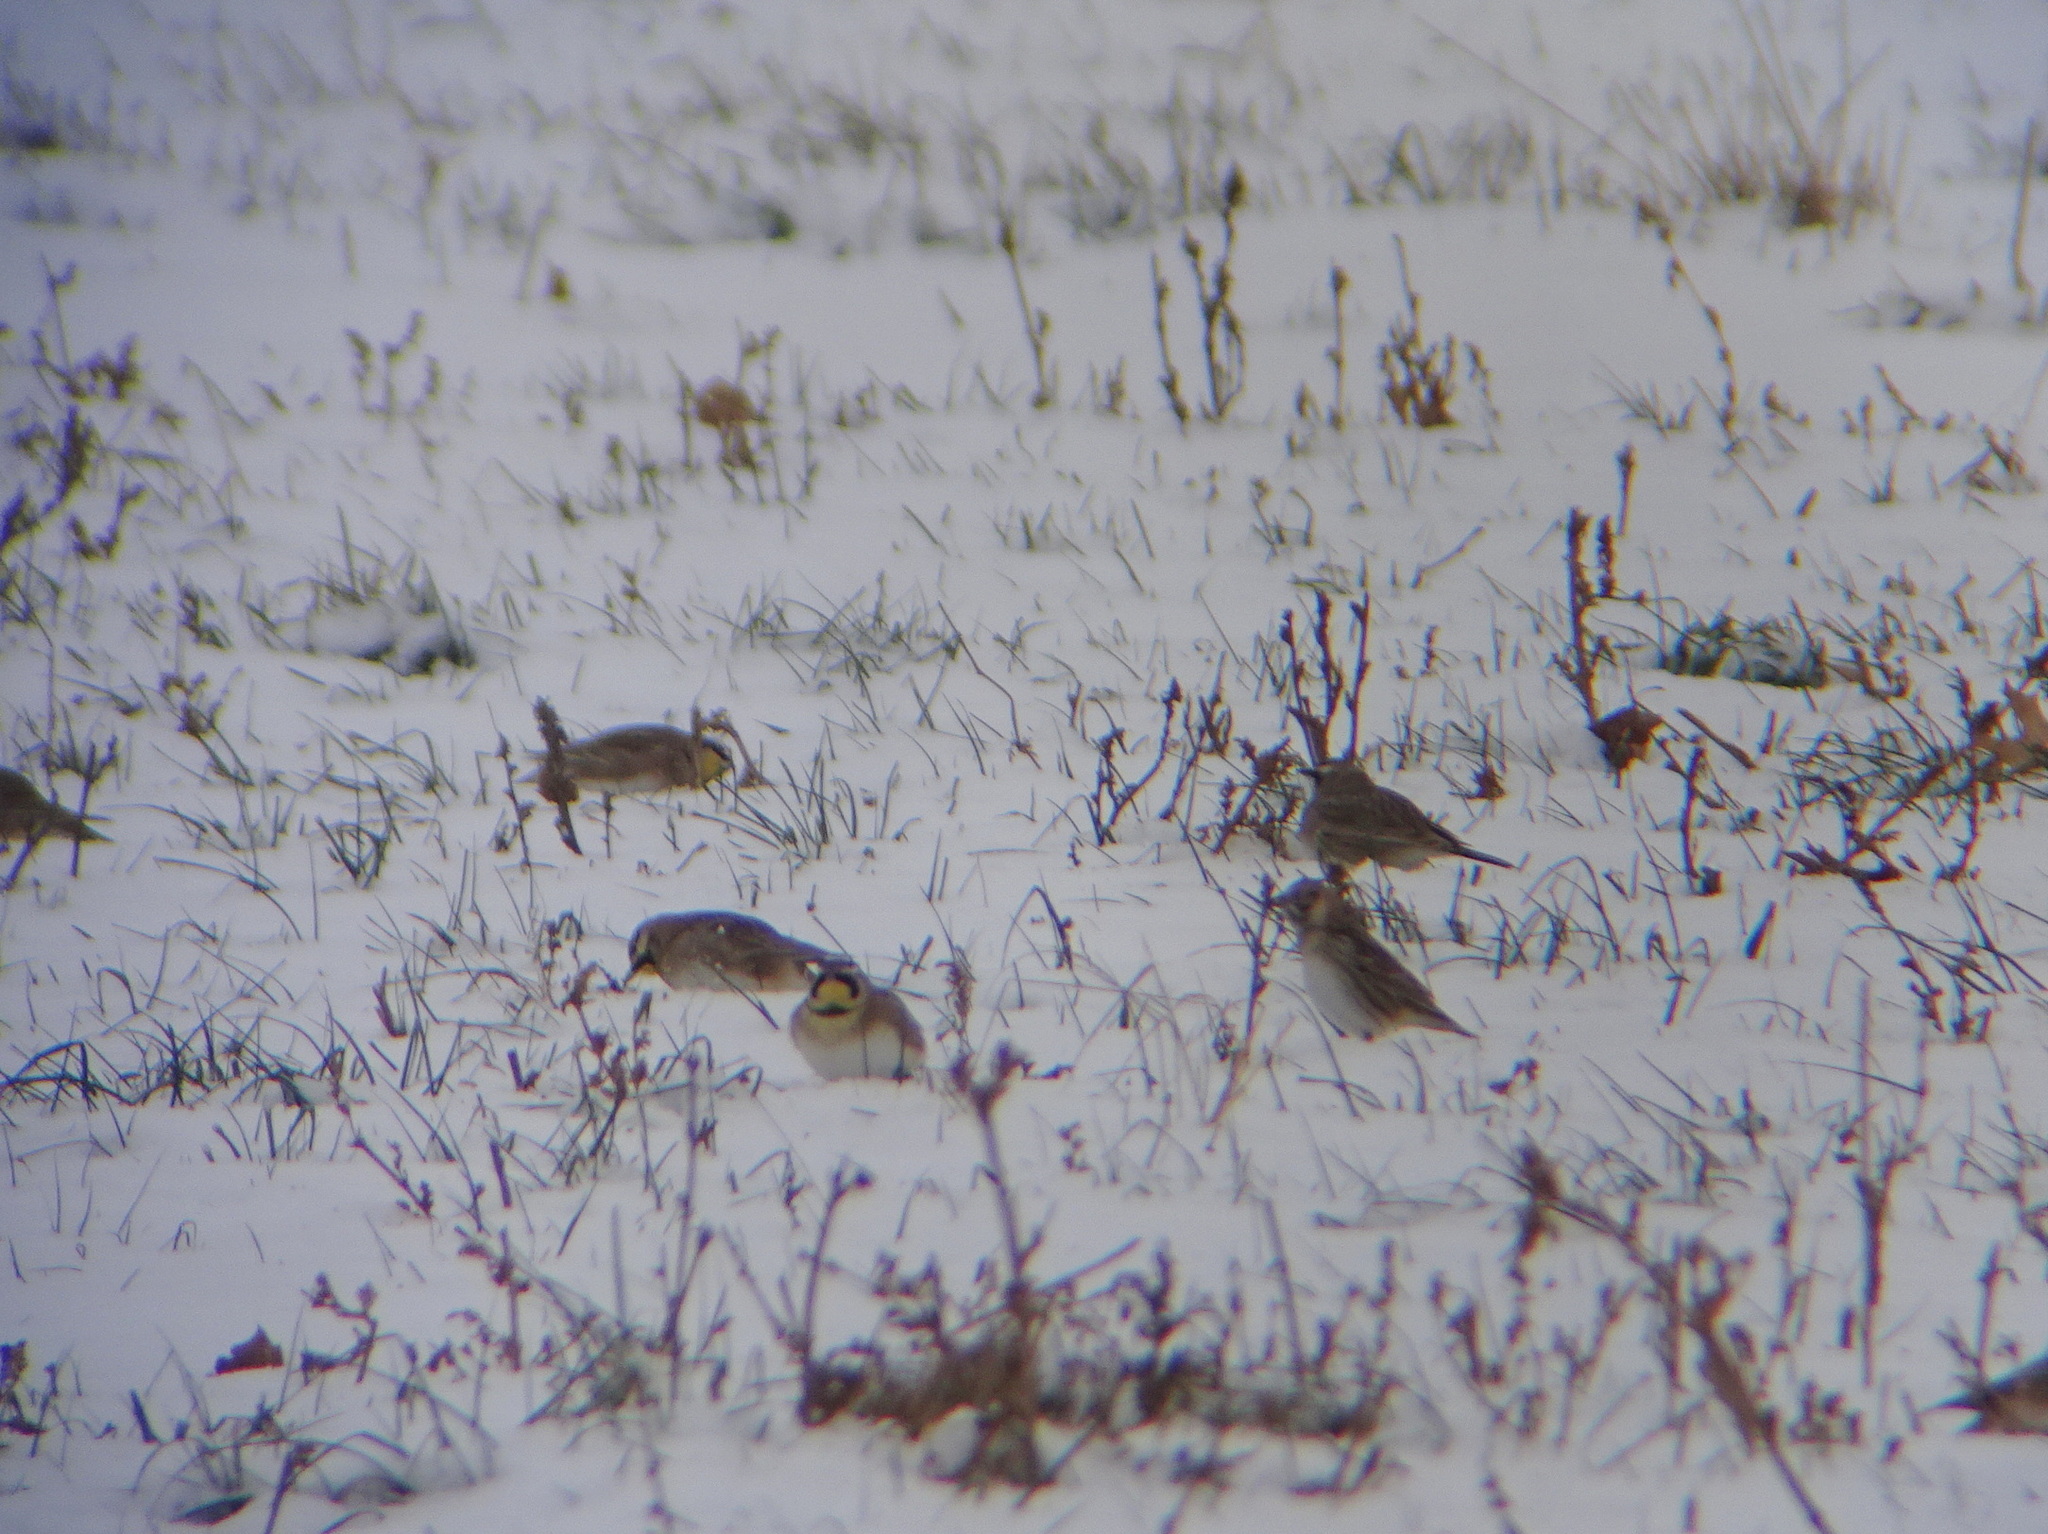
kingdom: Animalia
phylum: Chordata
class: Aves
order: Passeriformes
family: Alaudidae
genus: Eremophila
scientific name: Eremophila alpestris
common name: Horned lark
